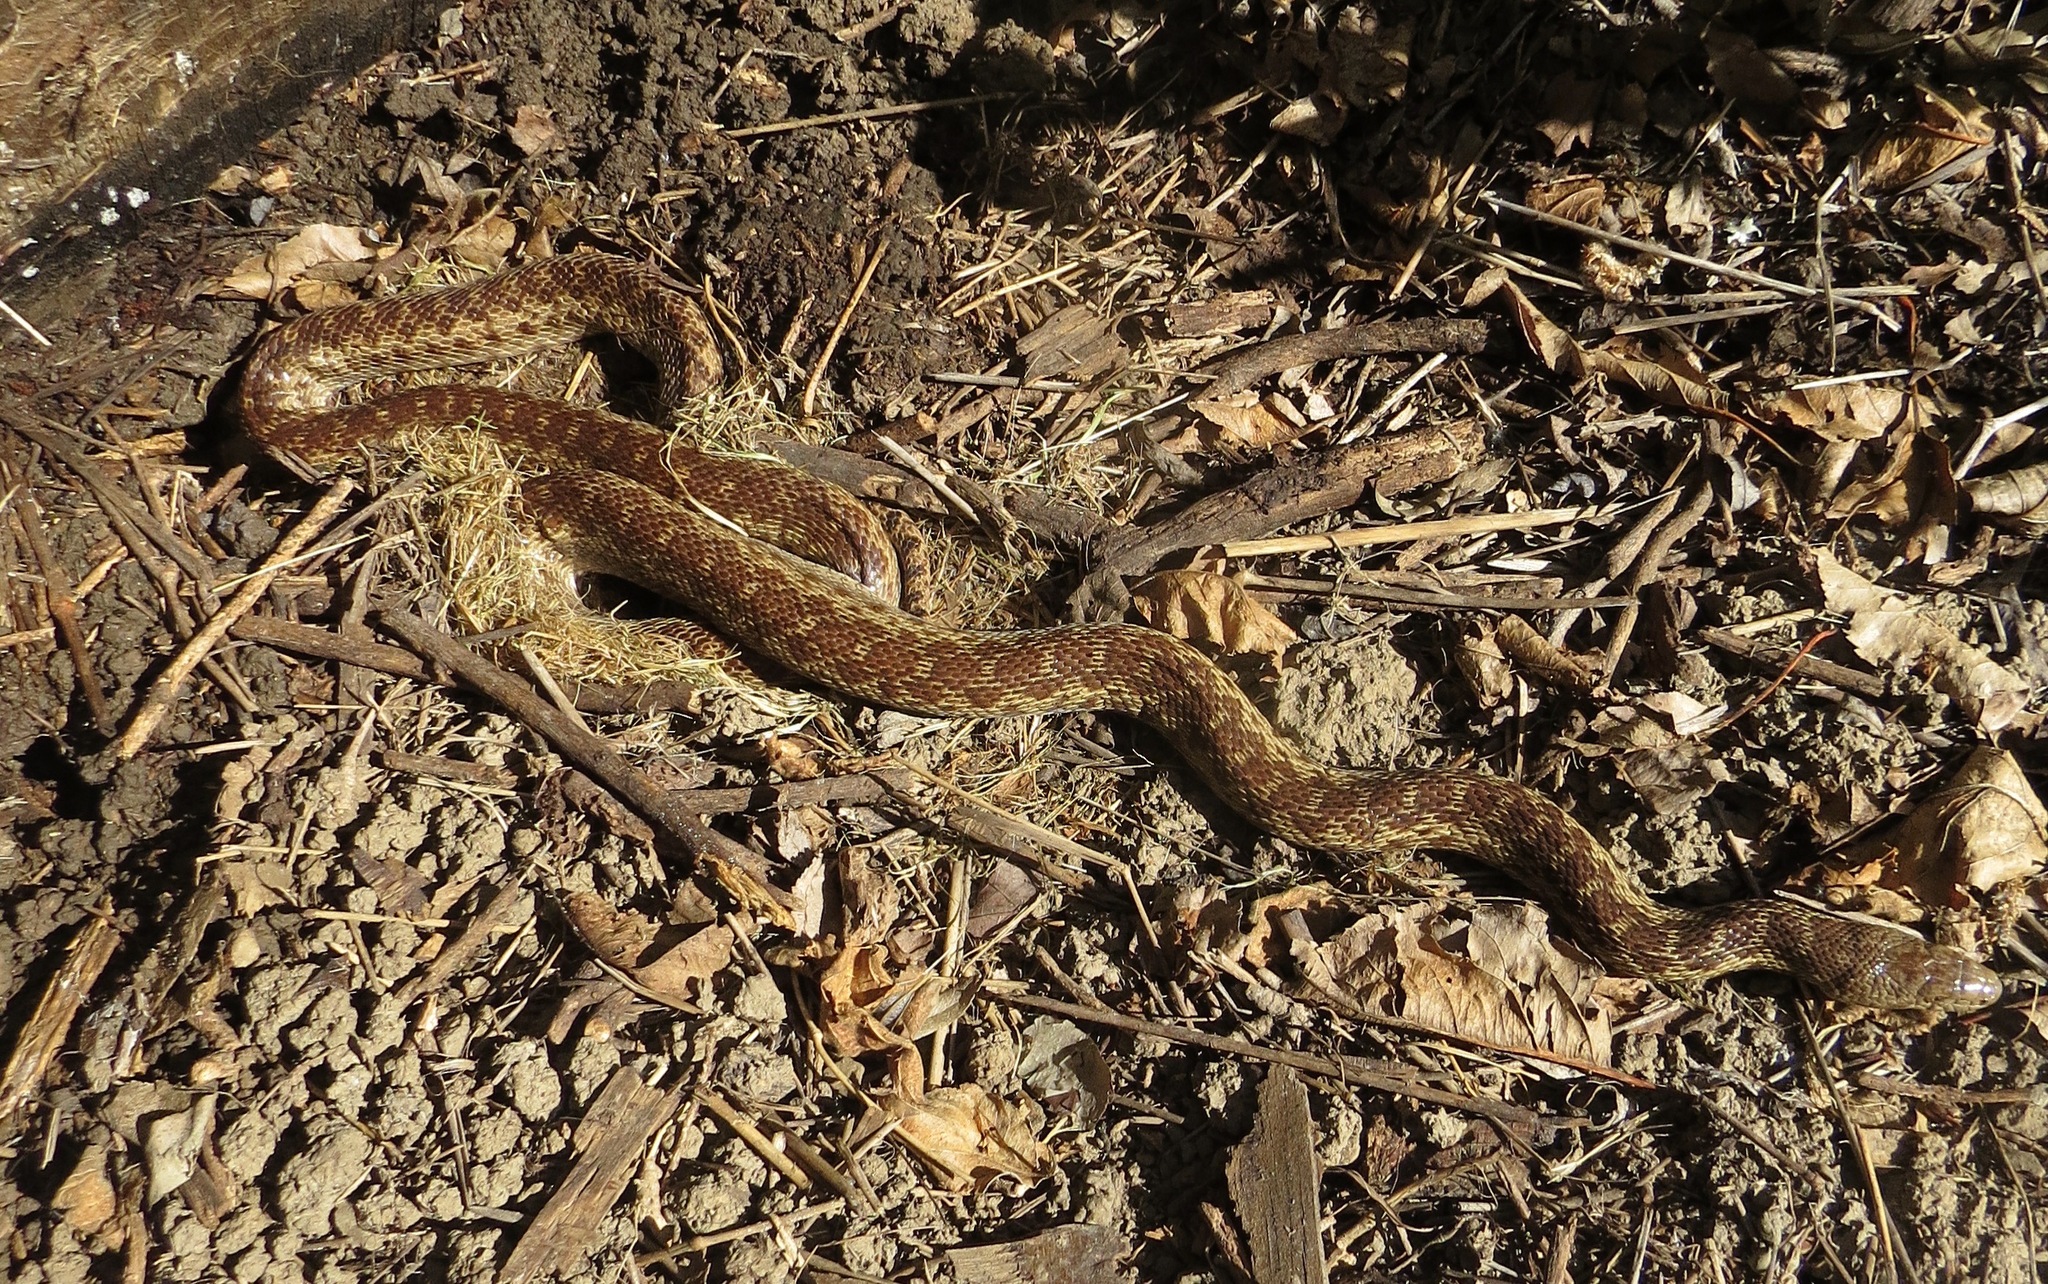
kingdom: Animalia
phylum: Chordata
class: Squamata
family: Colubridae
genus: Pituophis
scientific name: Pituophis catenifer
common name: Gopher snake
